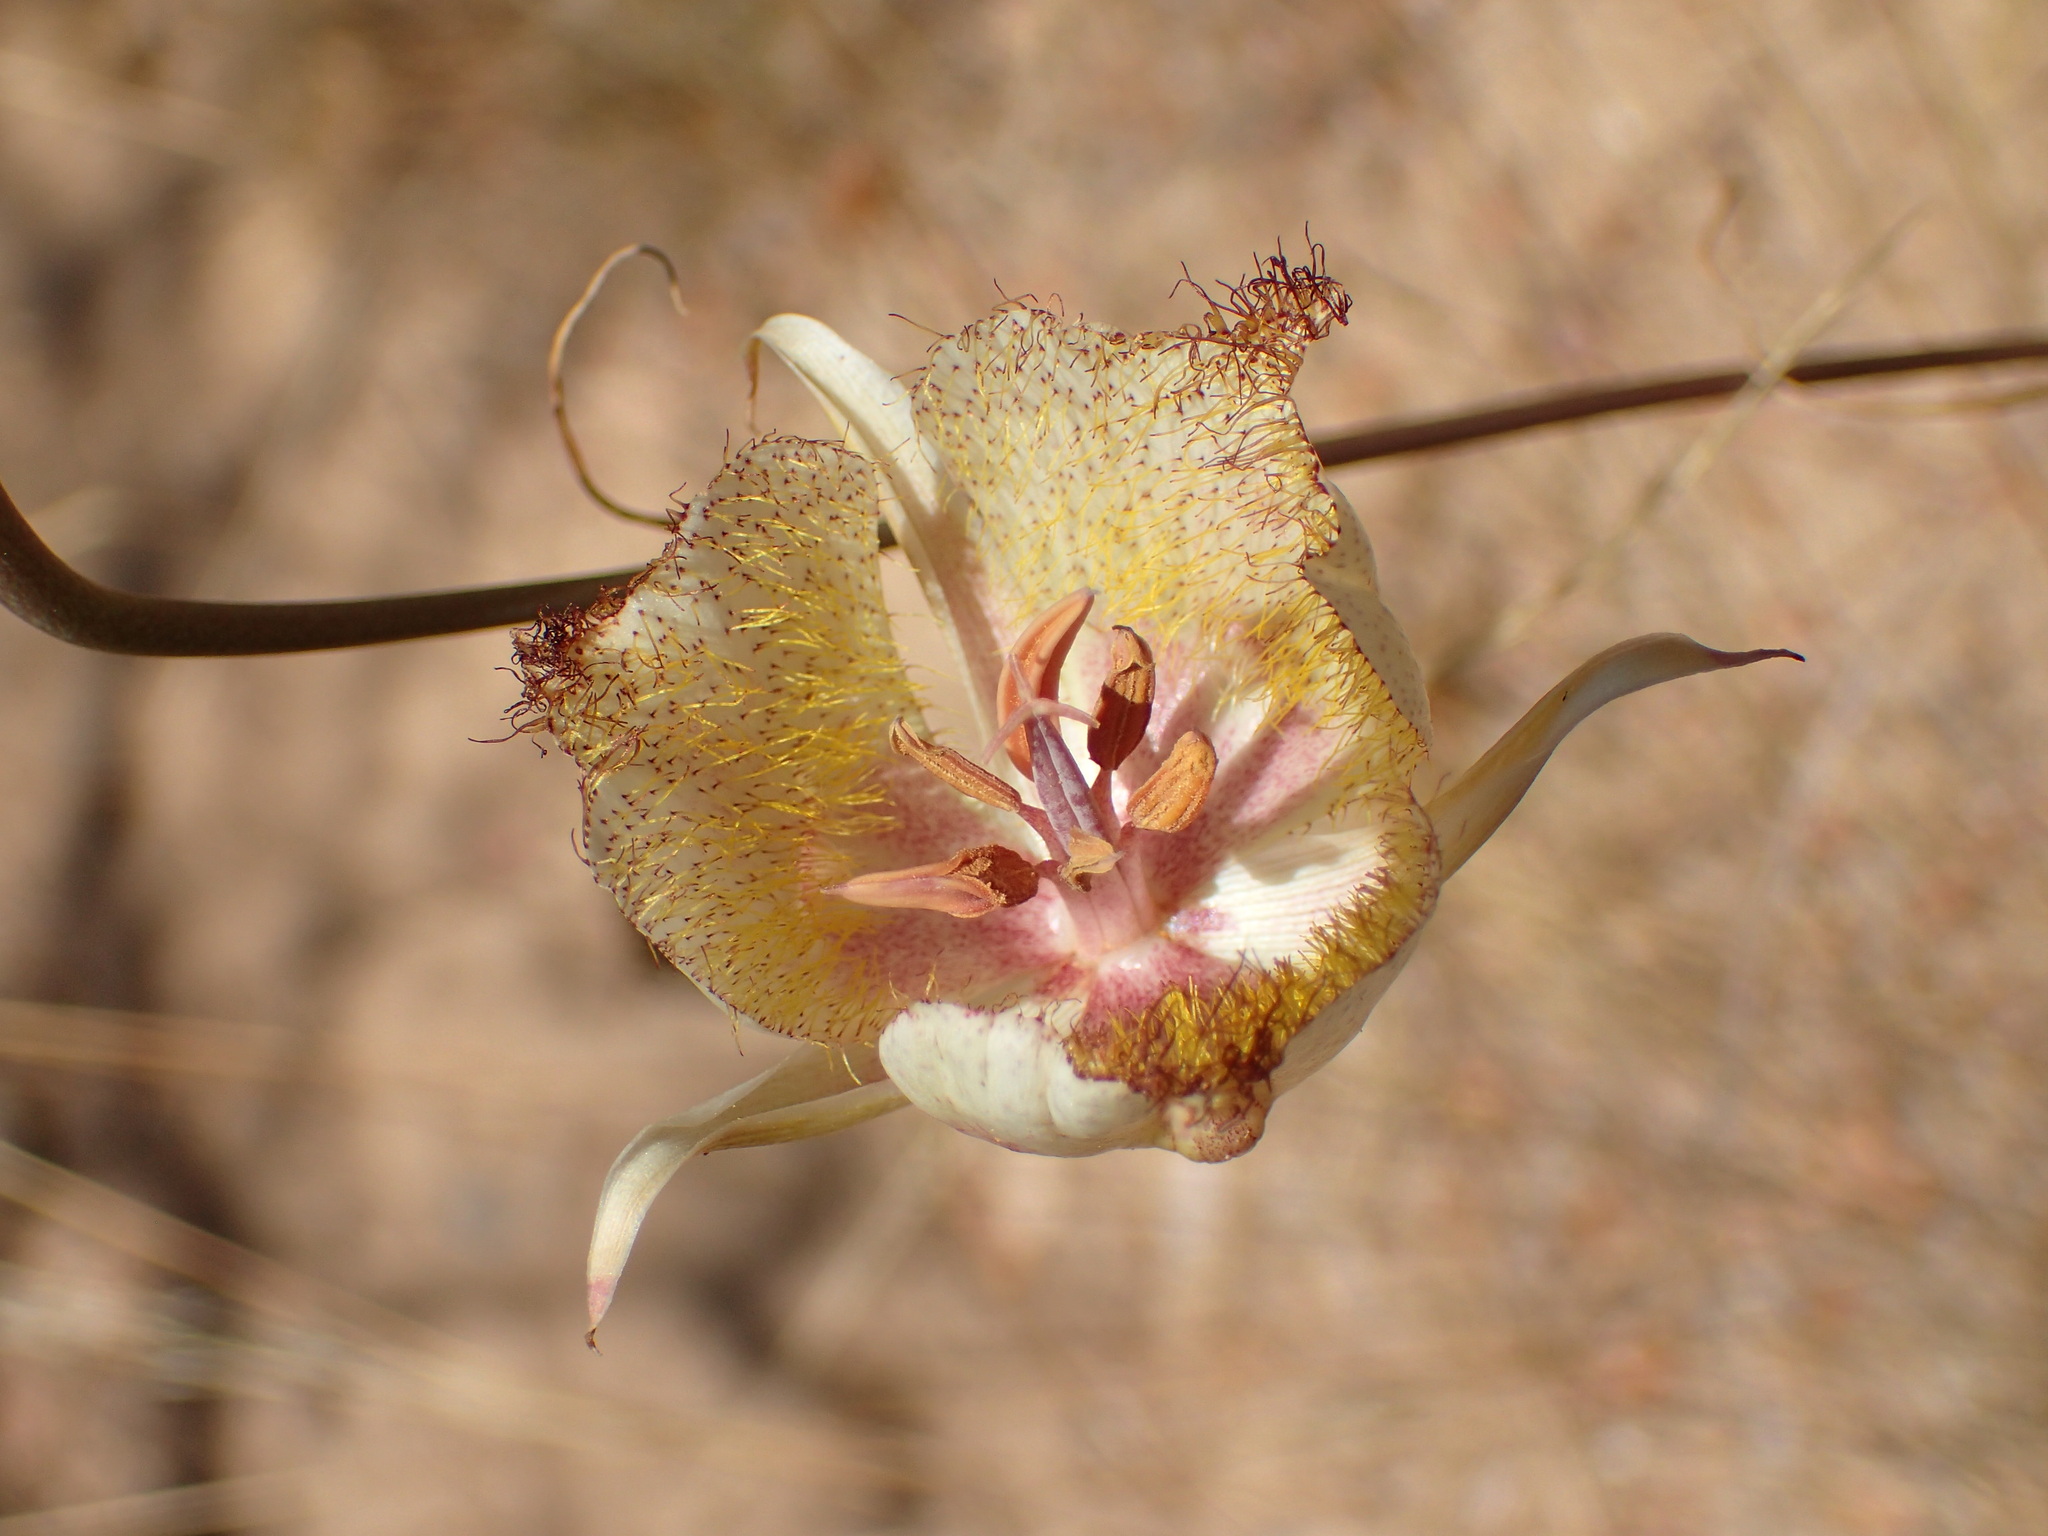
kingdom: Plantae
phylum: Tracheophyta
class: Liliopsida
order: Liliales
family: Liliaceae
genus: Calochortus
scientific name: Calochortus fimbriatus
